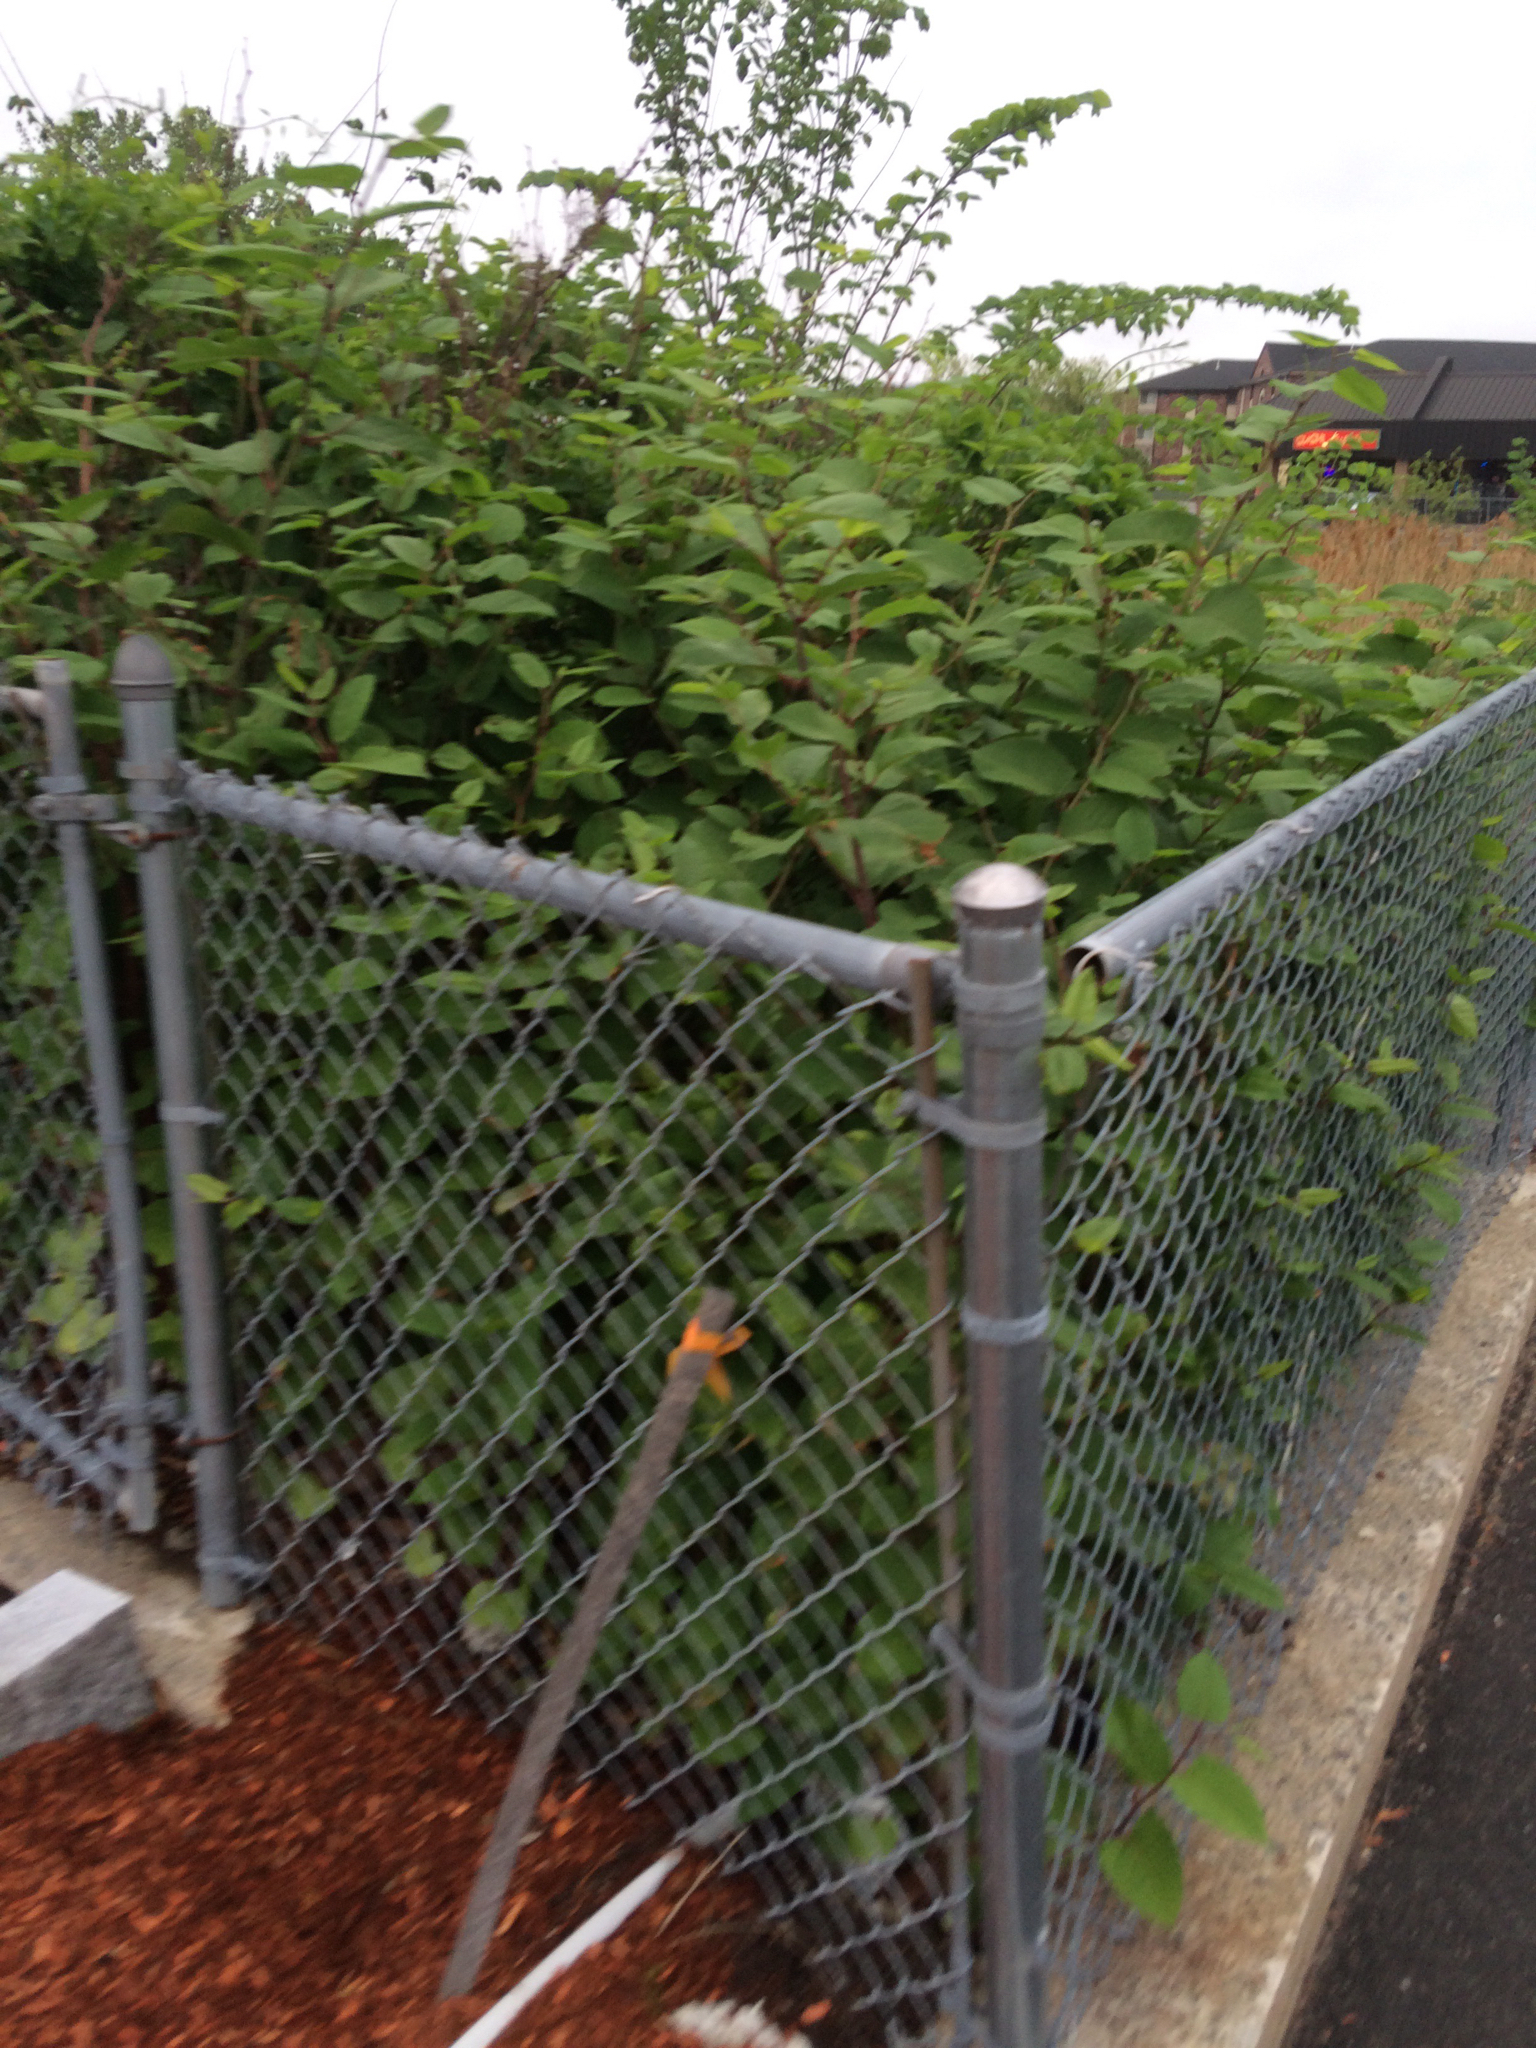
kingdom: Plantae
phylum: Tracheophyta
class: Magnoliopsida
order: Caryophyllales
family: Polygonaceae
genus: Reynoutria
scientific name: Reynoutria japonica
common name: Japanese knotweed
